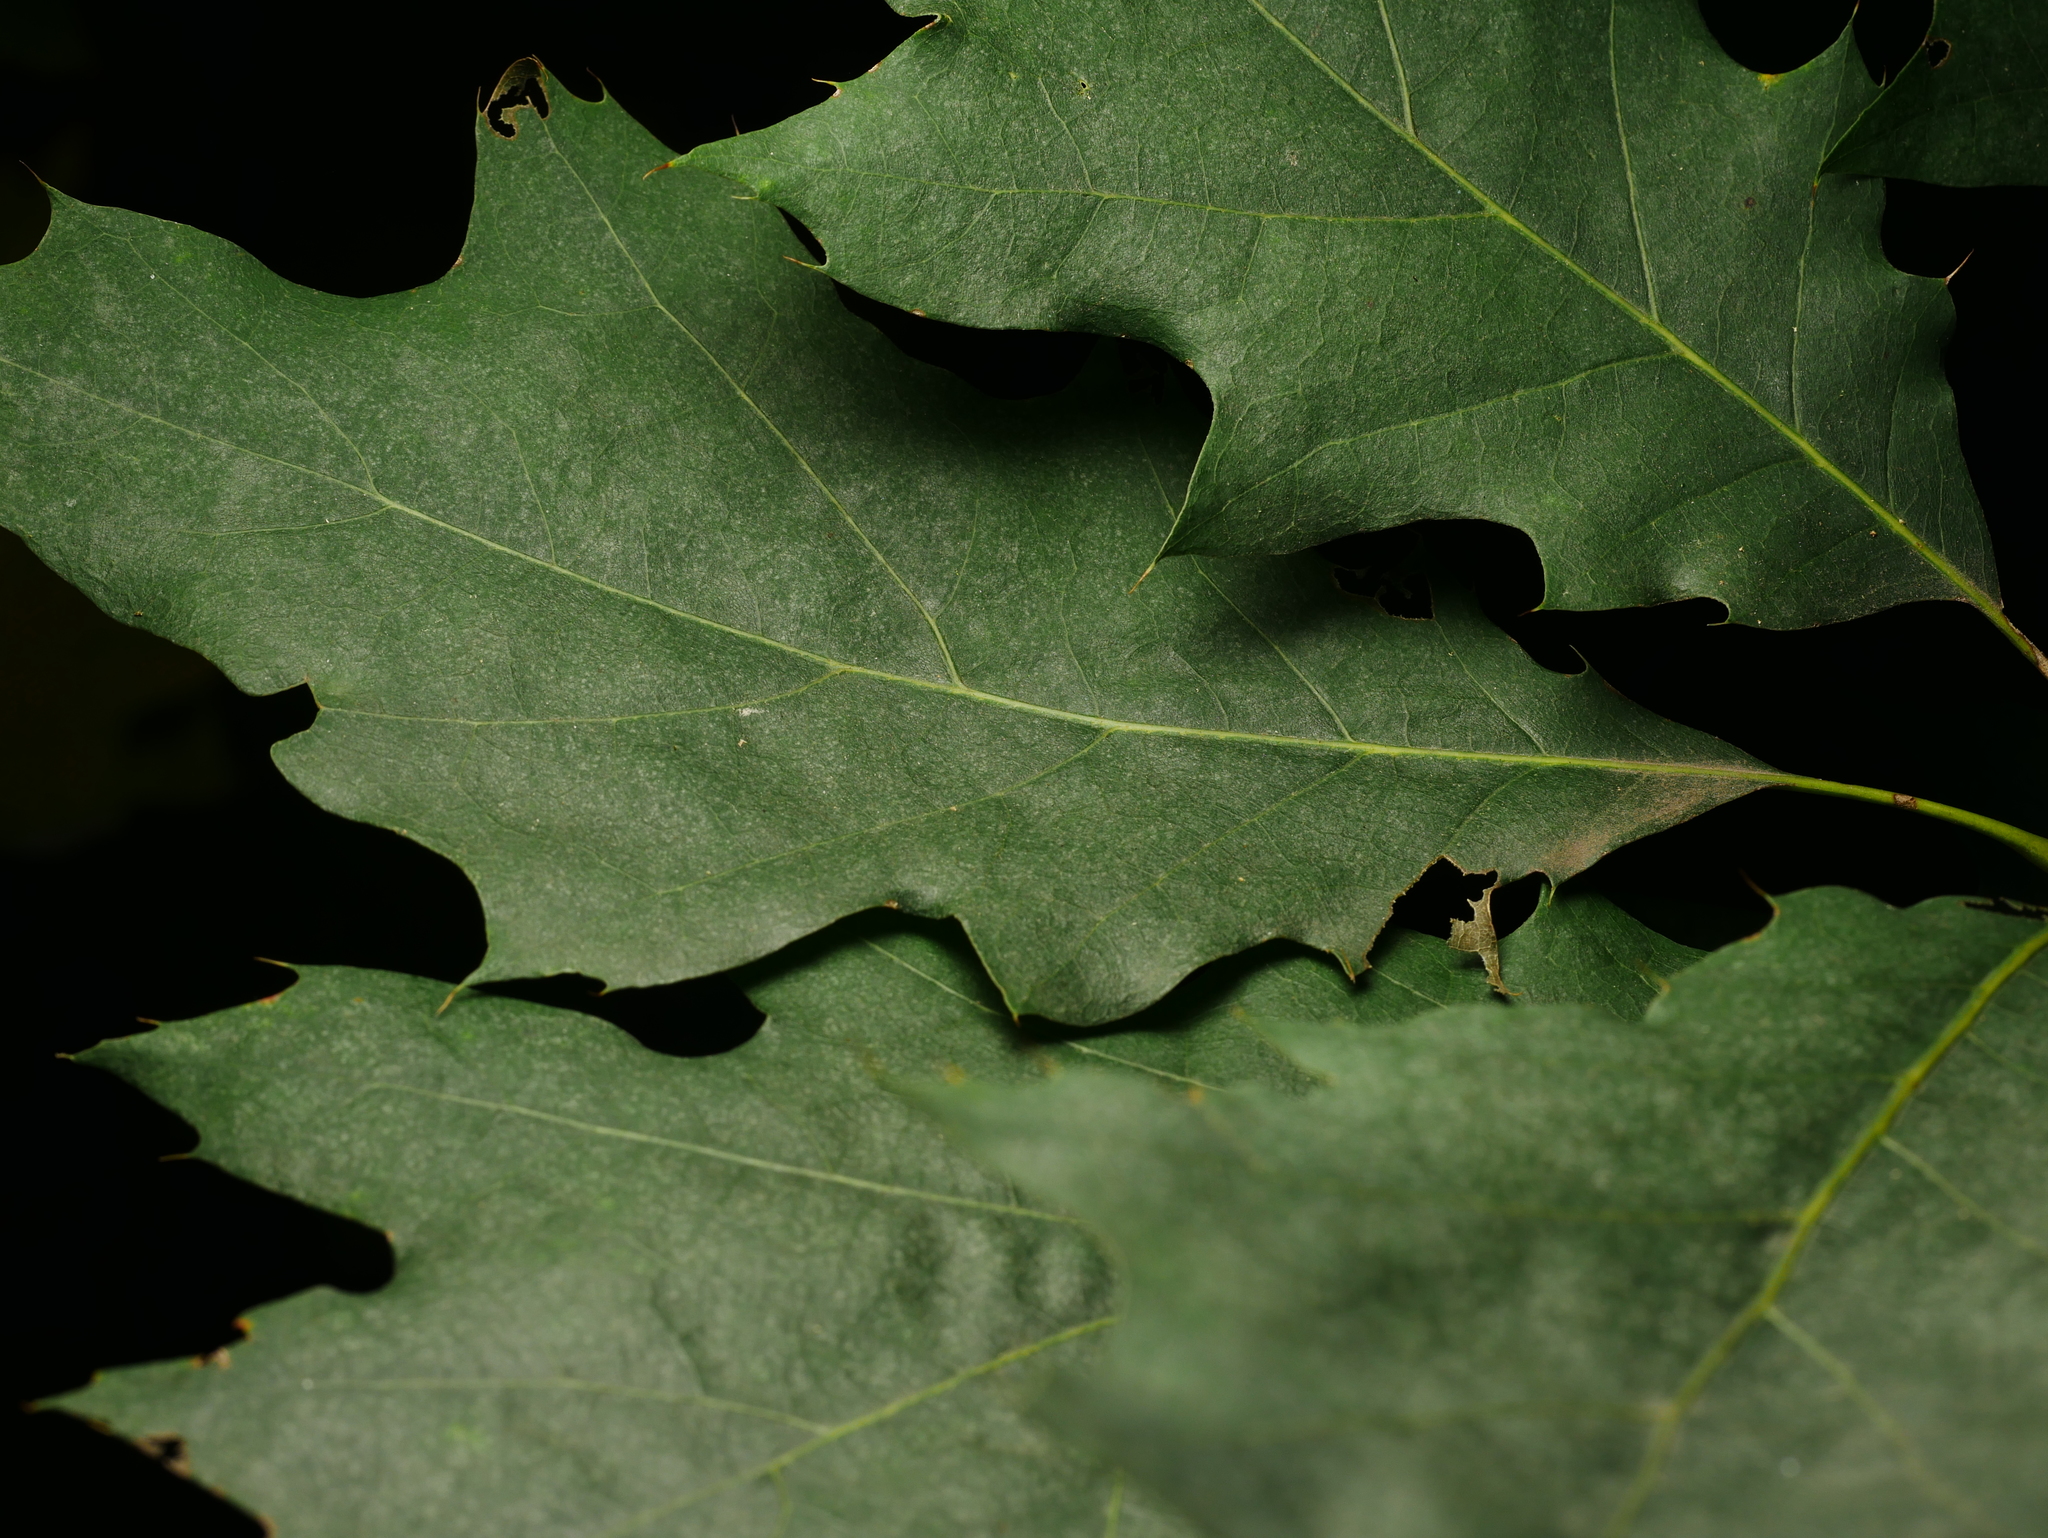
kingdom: Plantae
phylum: Tracheophyta
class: Magnoliopsida
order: Fagales
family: Fagaceae
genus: Quercus
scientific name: Quercus rubra
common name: Red oak
